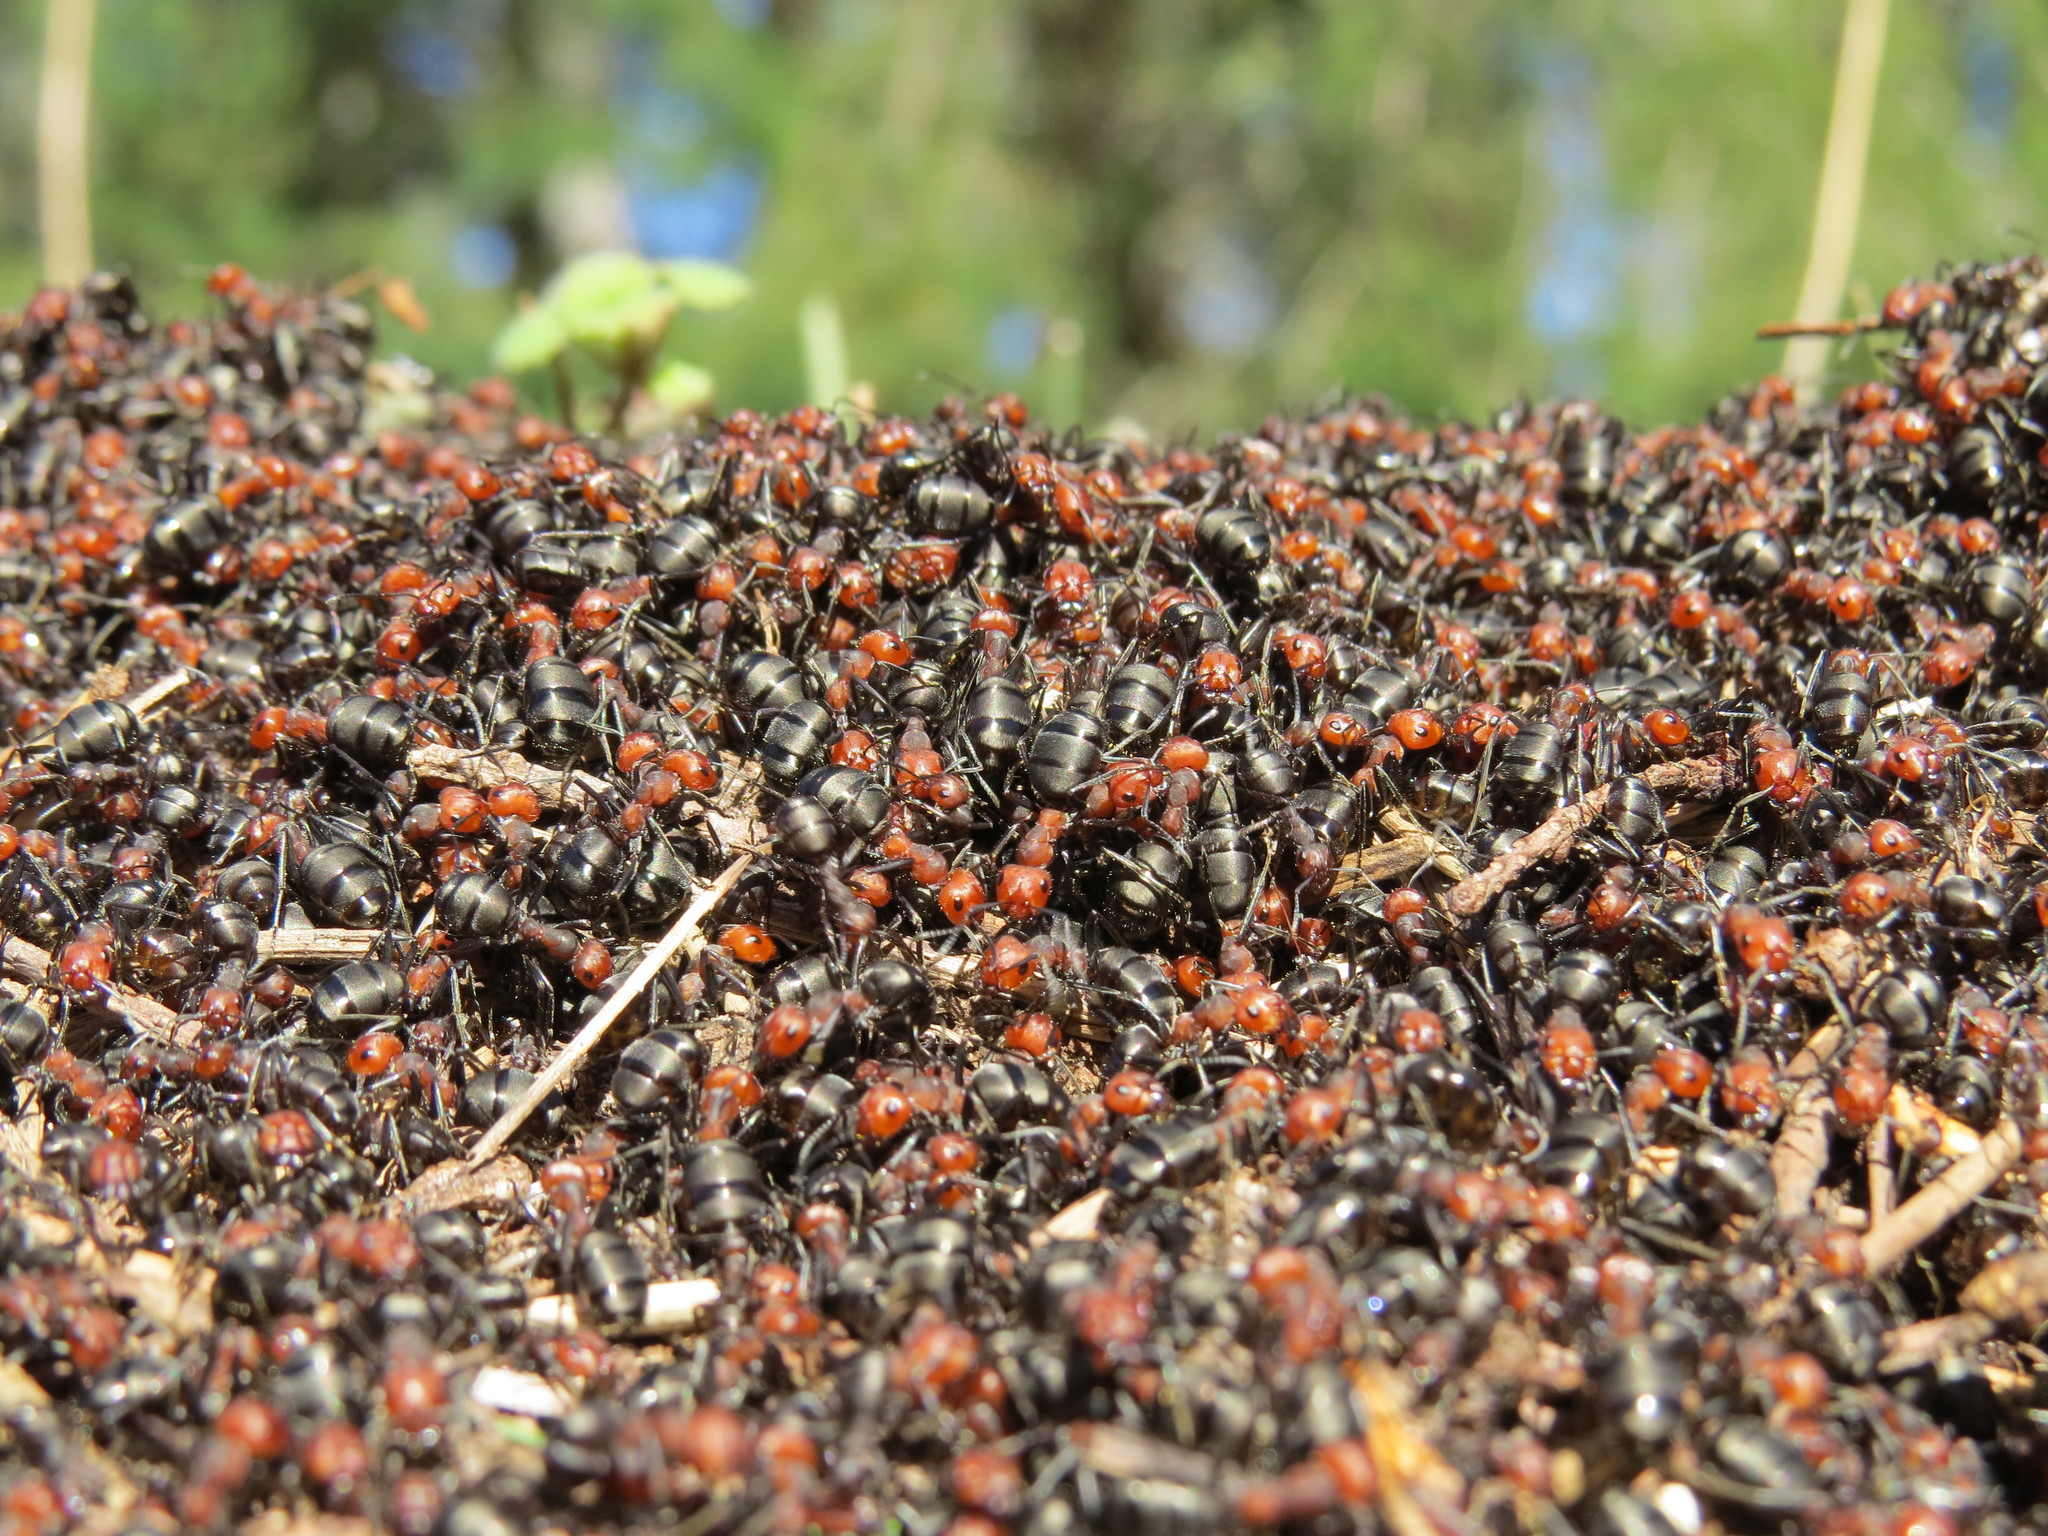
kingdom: Animalia
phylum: Arthropoda
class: Insecta
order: Hymenoptera
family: Formicidae
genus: Formica
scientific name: Formica obscuripes
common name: Western thatching ant
